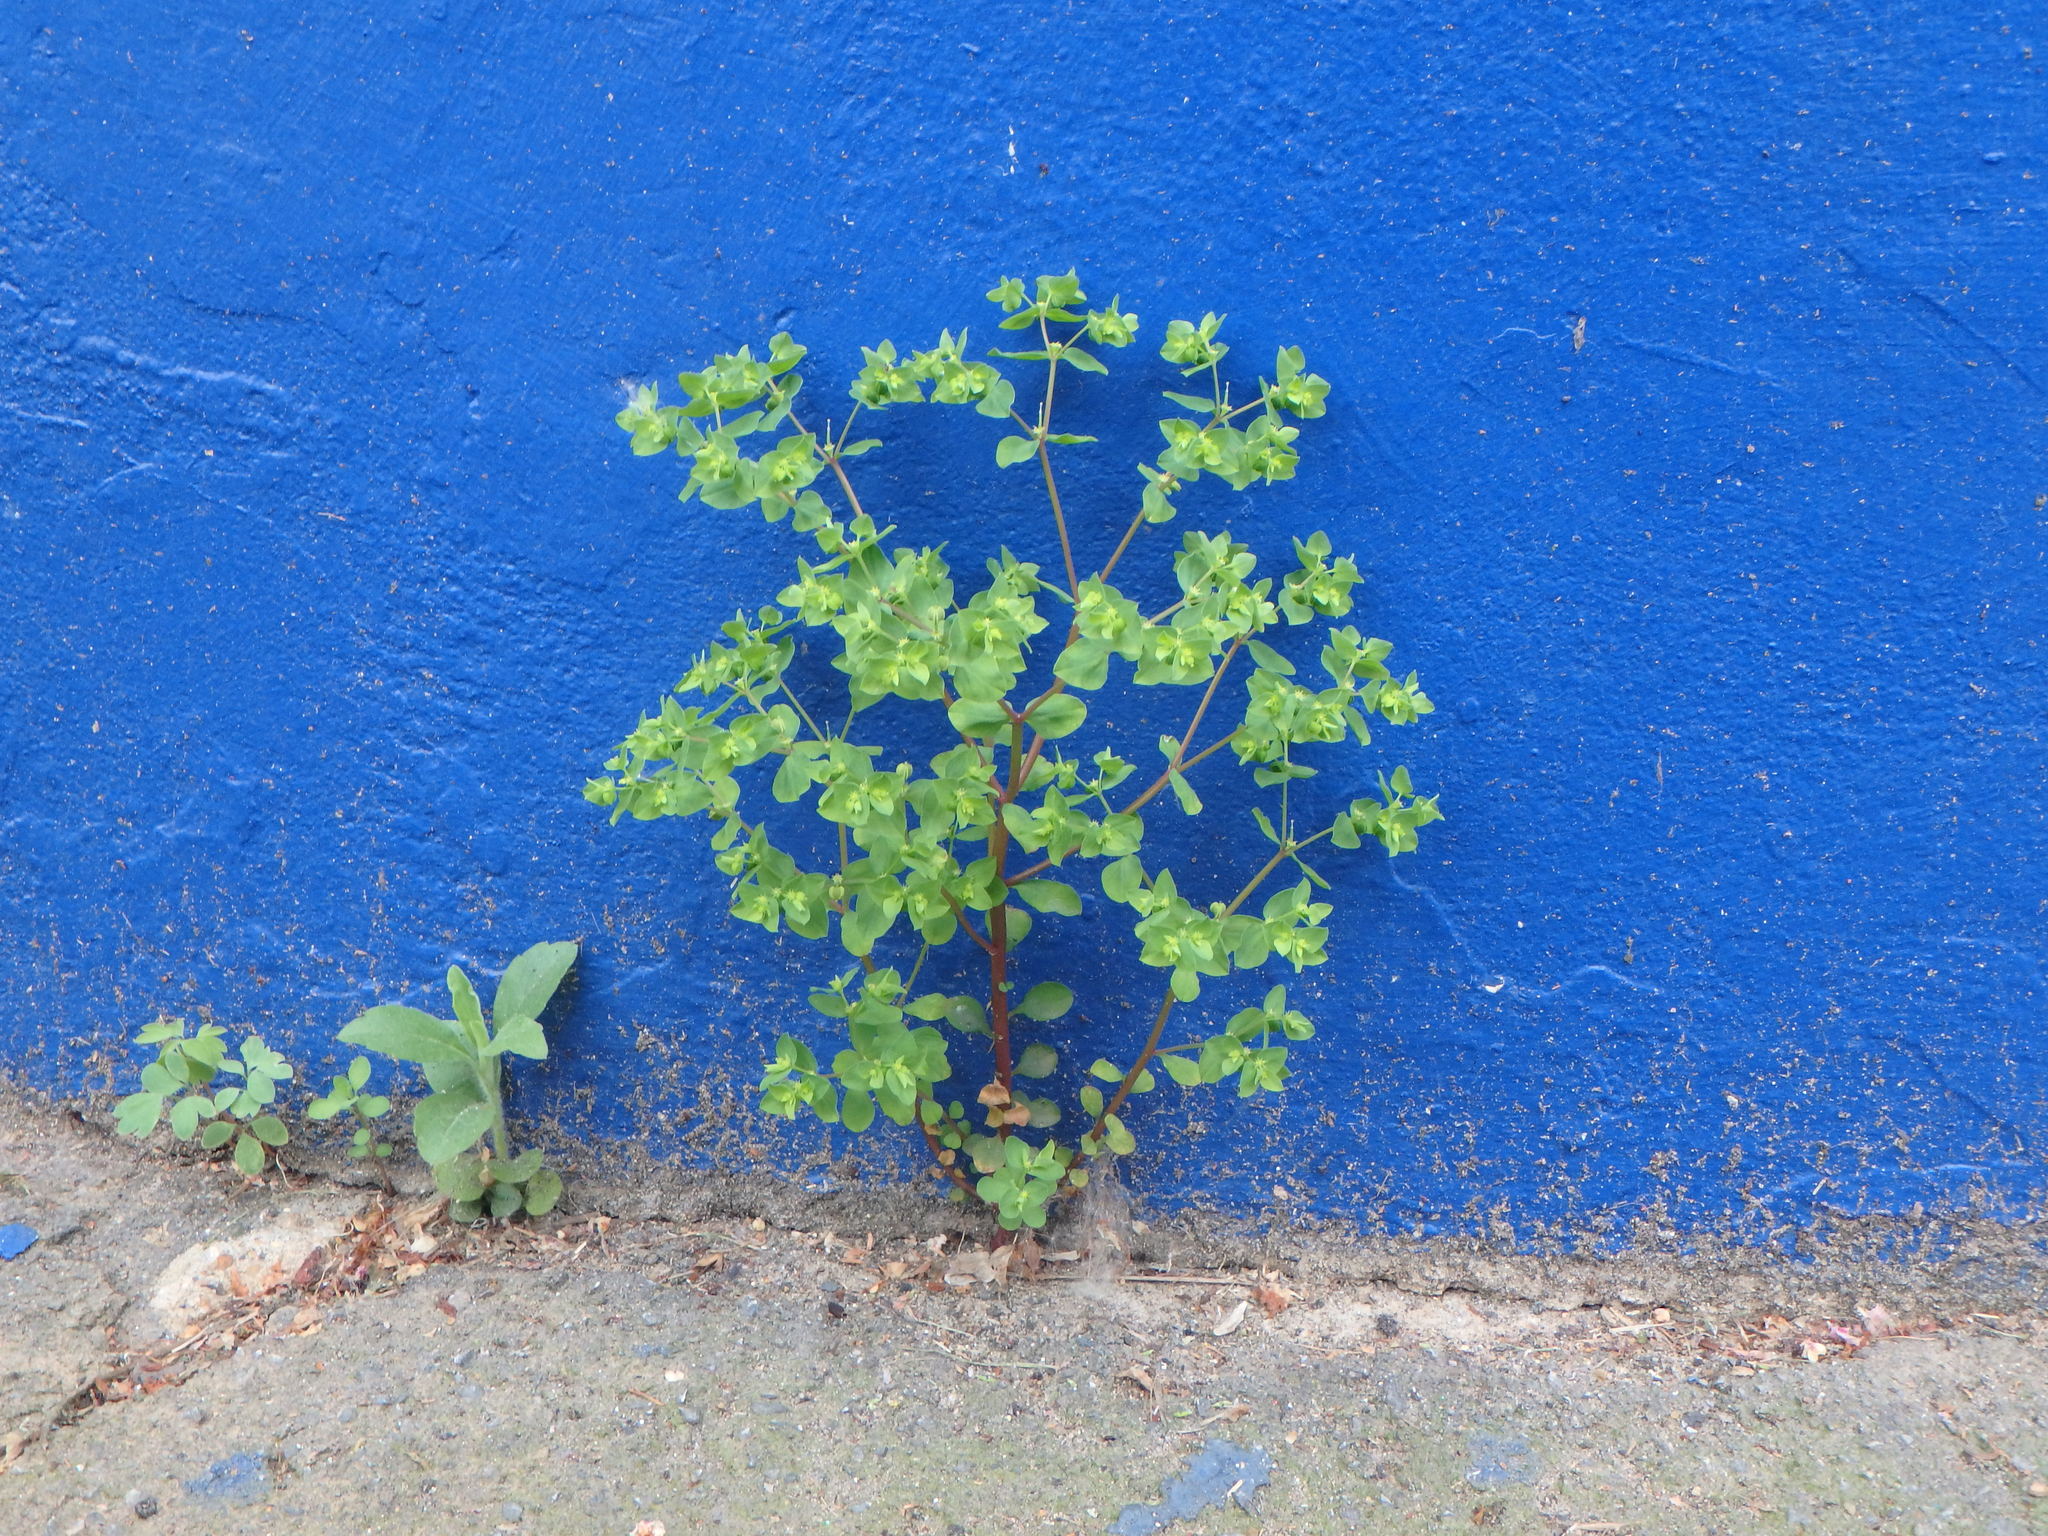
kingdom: Plantae
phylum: Tracheophyta
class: Magnoliopsida
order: Malpighiales
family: Euphorbiaceae
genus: Euphorbia
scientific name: Euphorbia peplus
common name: Petty spurge
